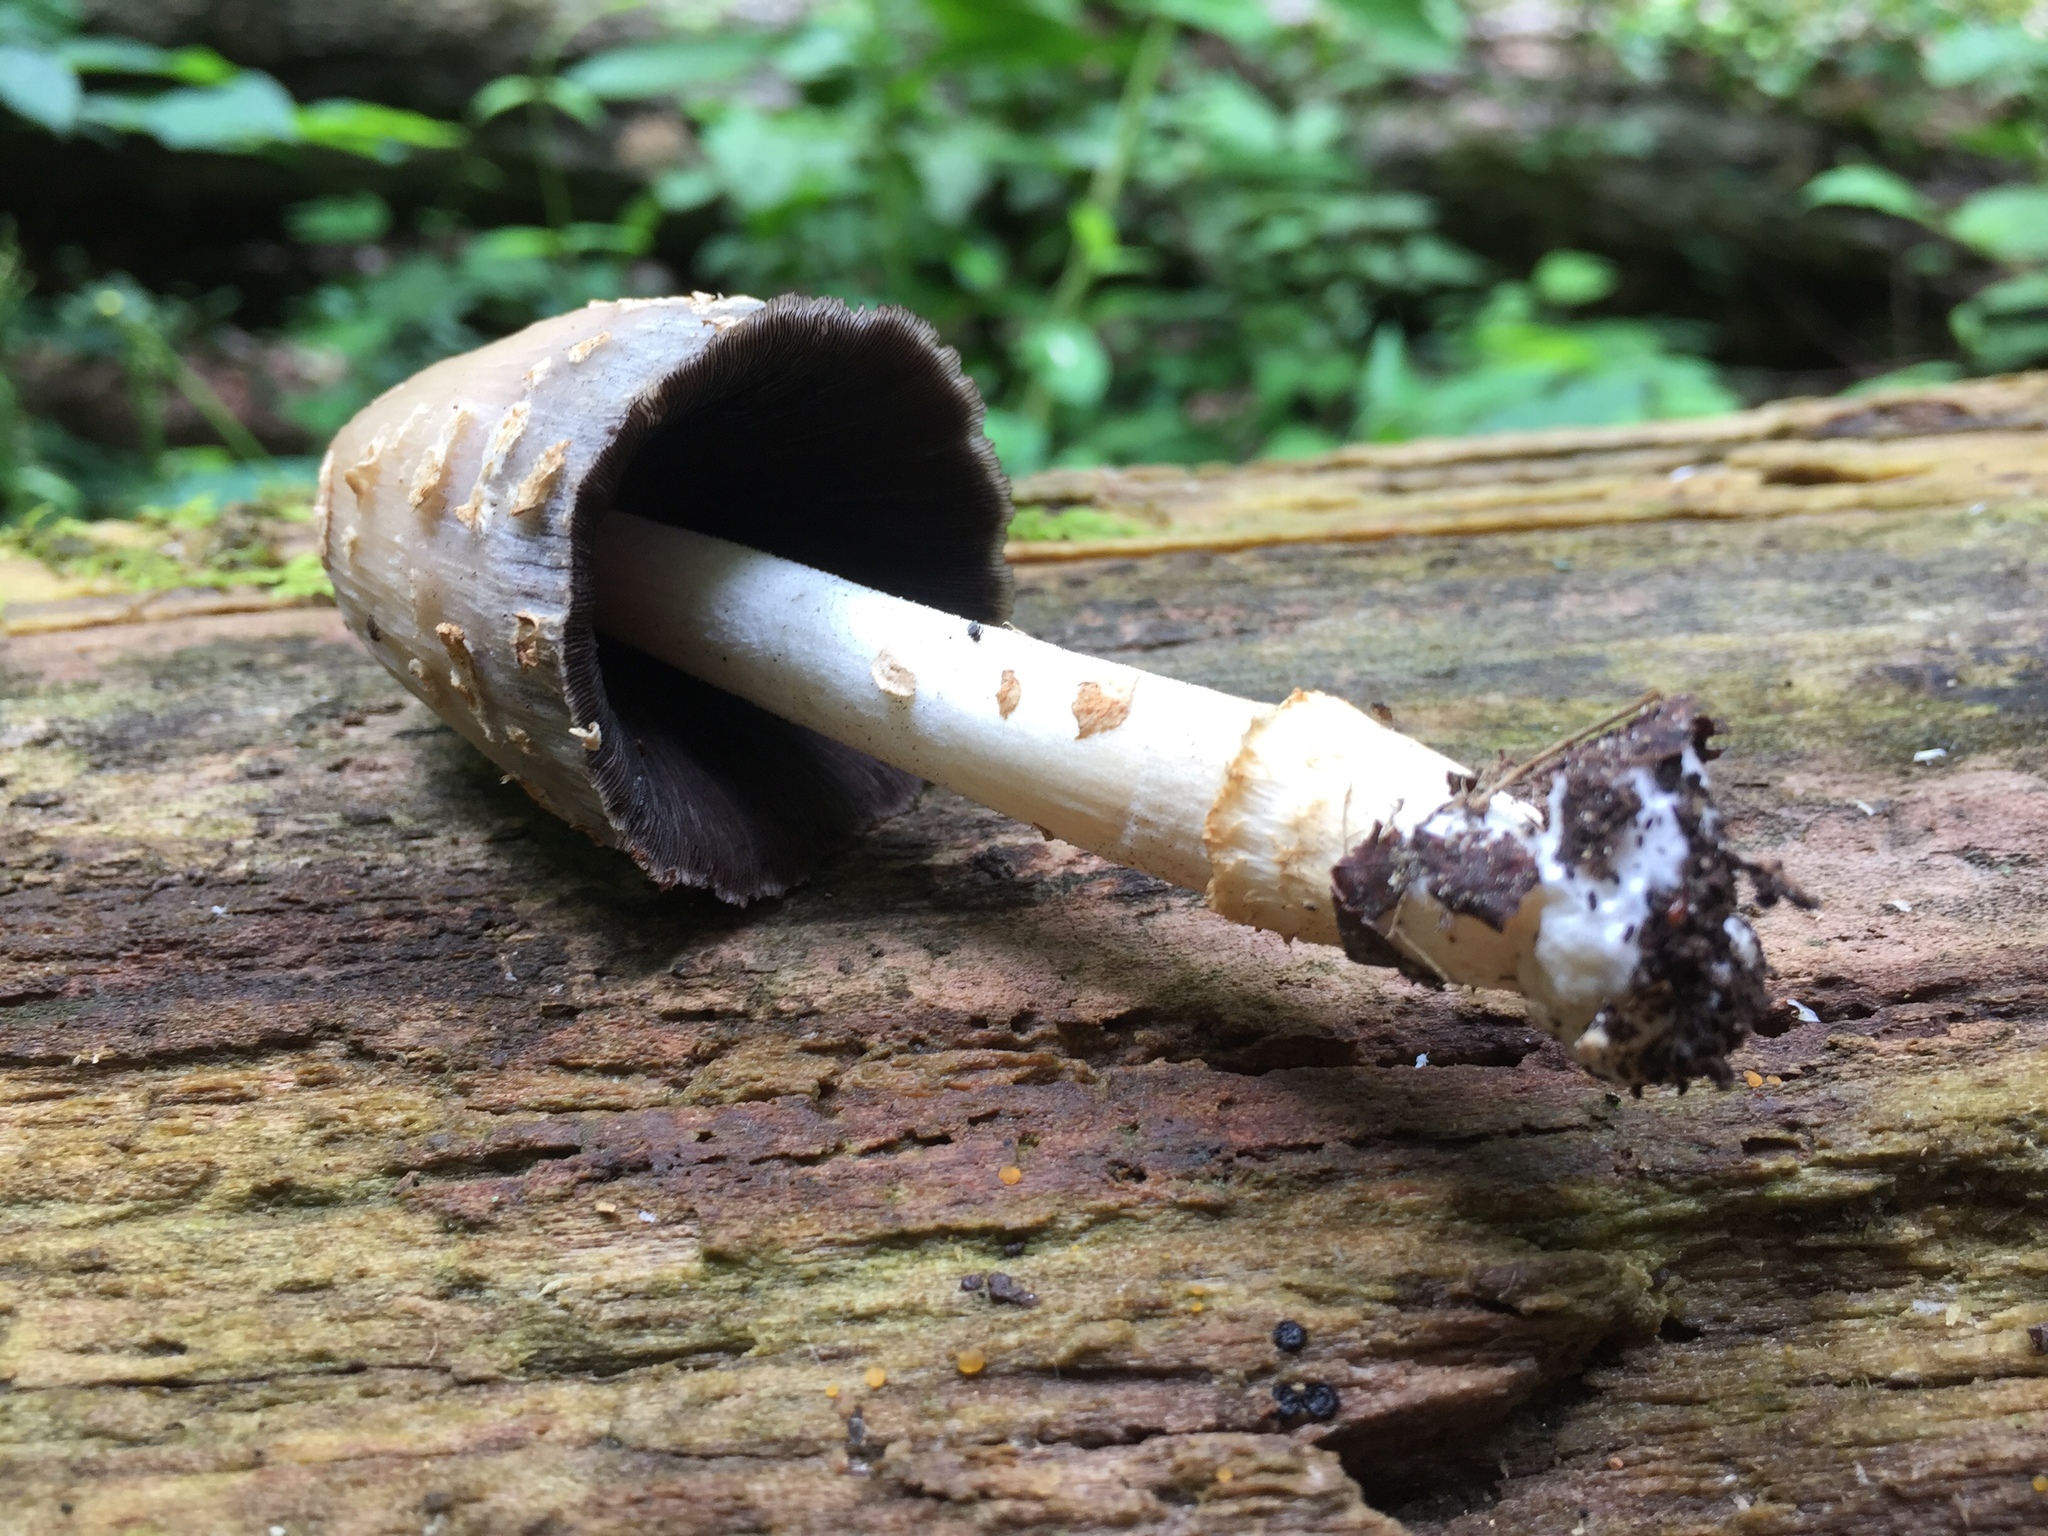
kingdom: Fungi
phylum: Basidiomycota
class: Agaricomycetes
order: Agaricales
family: Psathyrellaceae
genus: Coprinopsis
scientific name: Coprinopsis variegata
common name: Scaly ink cap
